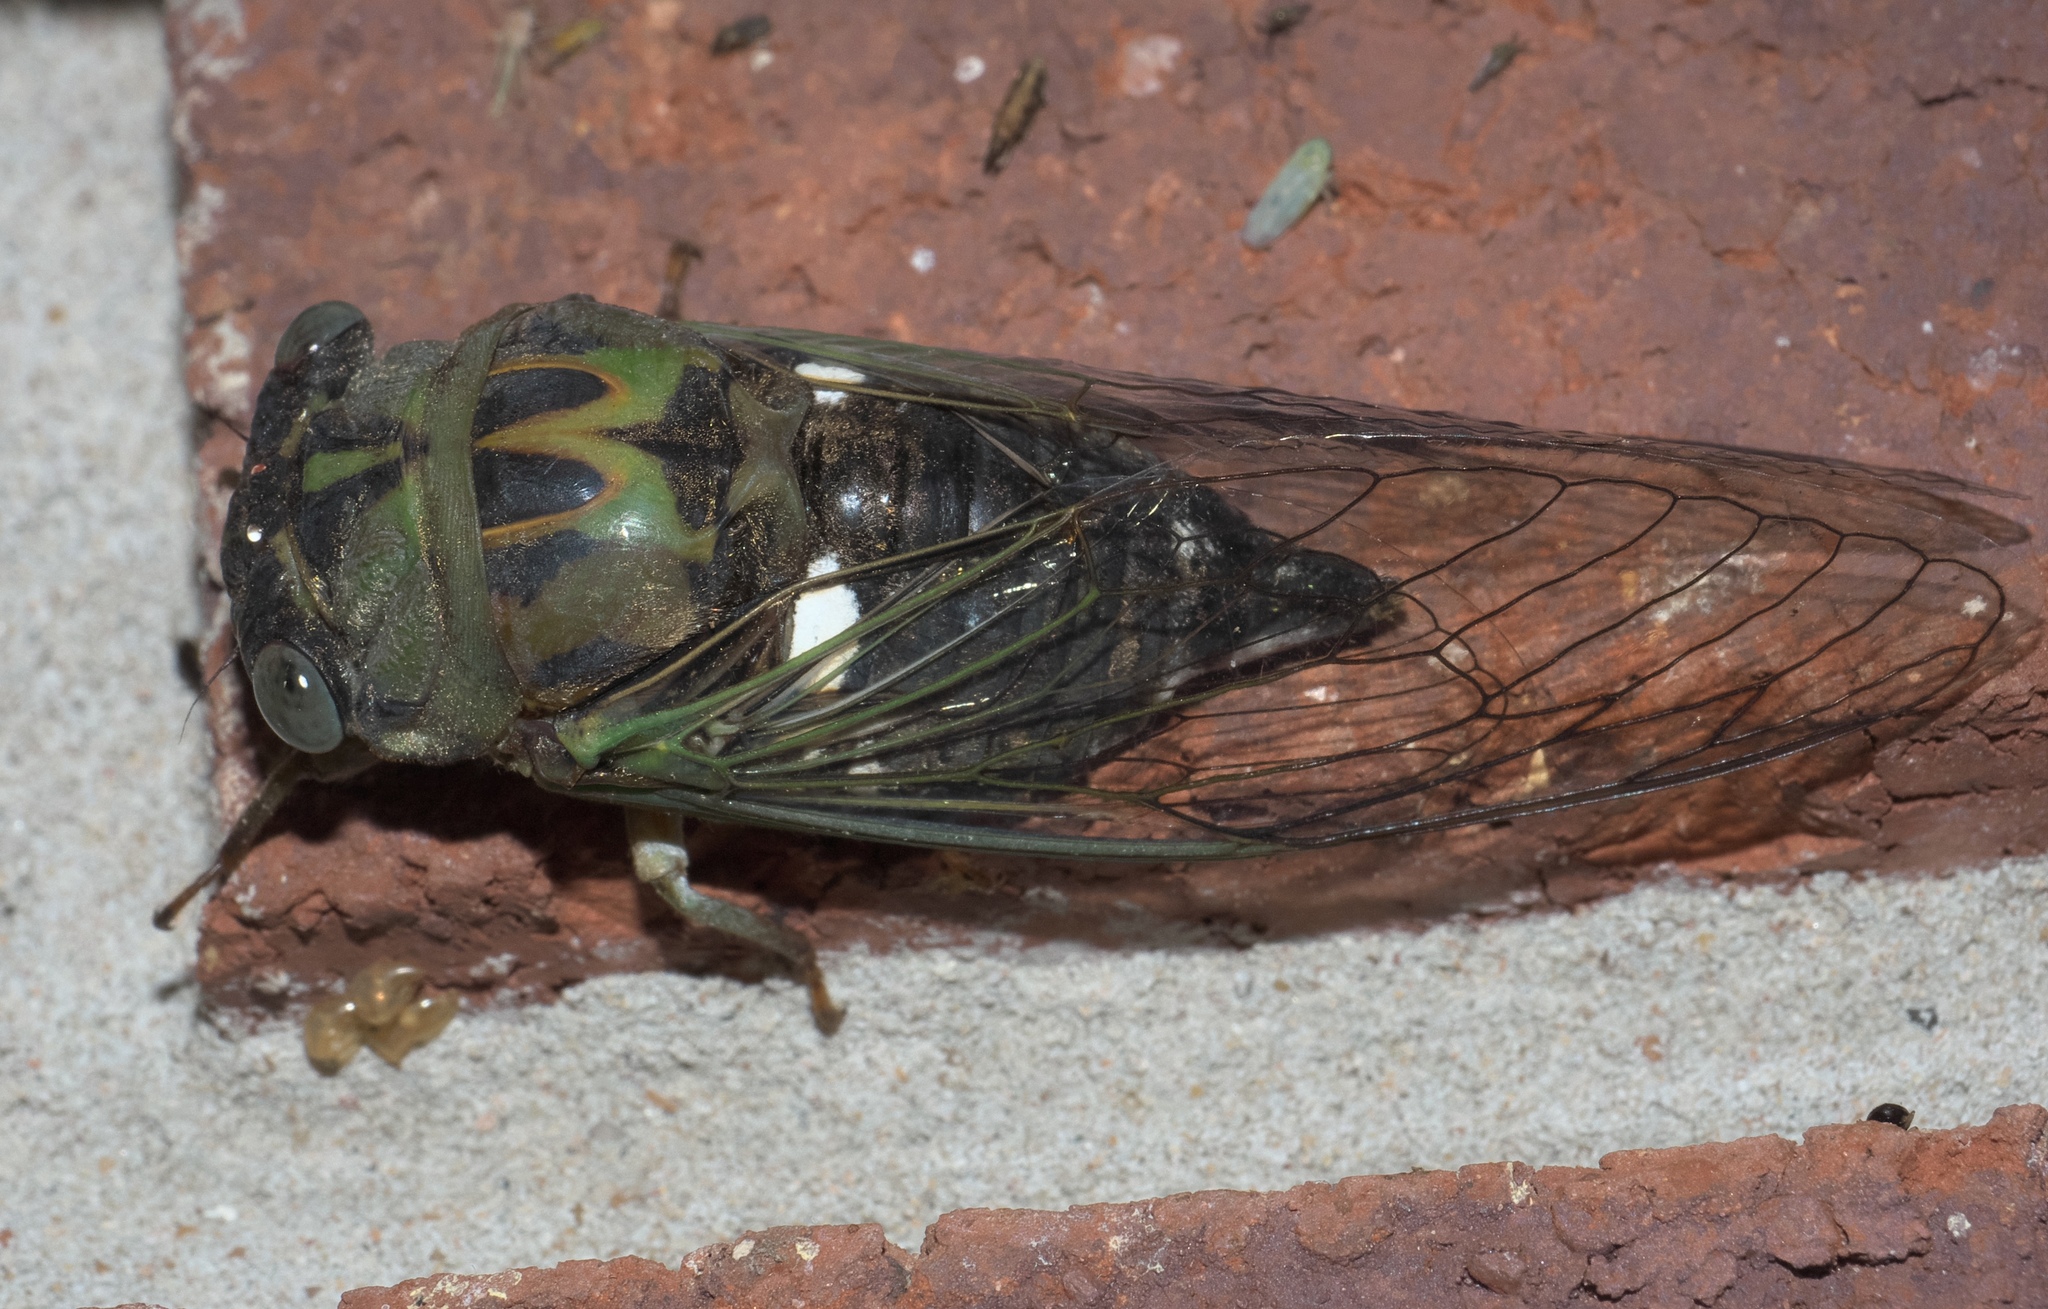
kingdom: Animalia
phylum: Arthropoda
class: Insecta
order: Hemiptera
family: Cicadidae
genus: Neotibicen
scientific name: Neotibicen pruinosus
